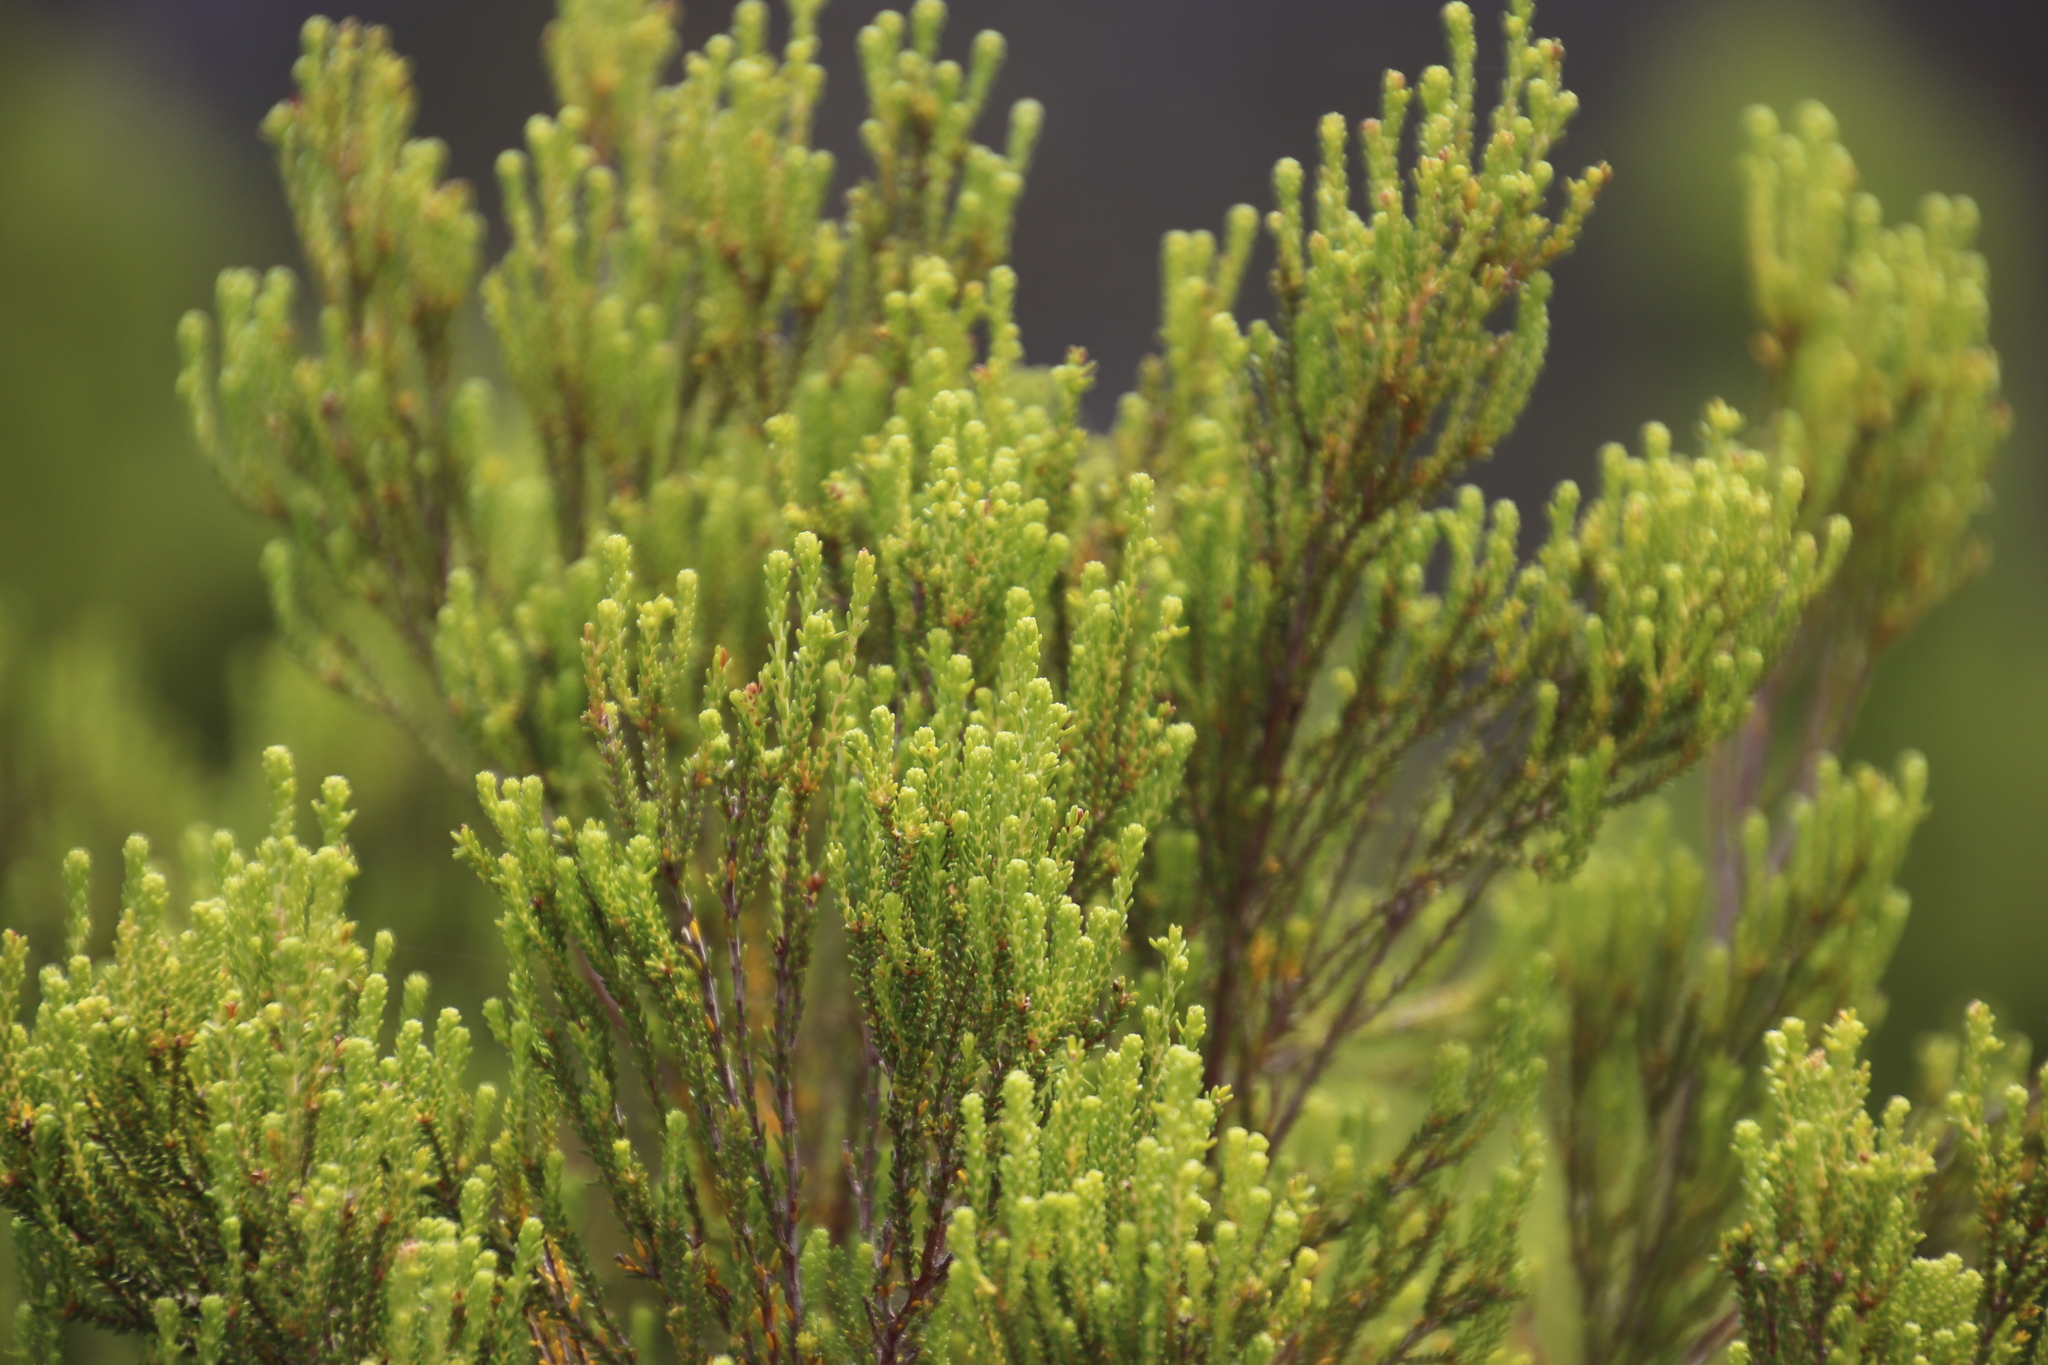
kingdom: Plantae
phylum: Tracheophyta
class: Magnoliopsida
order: Ericales
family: Ericaceae
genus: Erica
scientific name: Erica tristis
